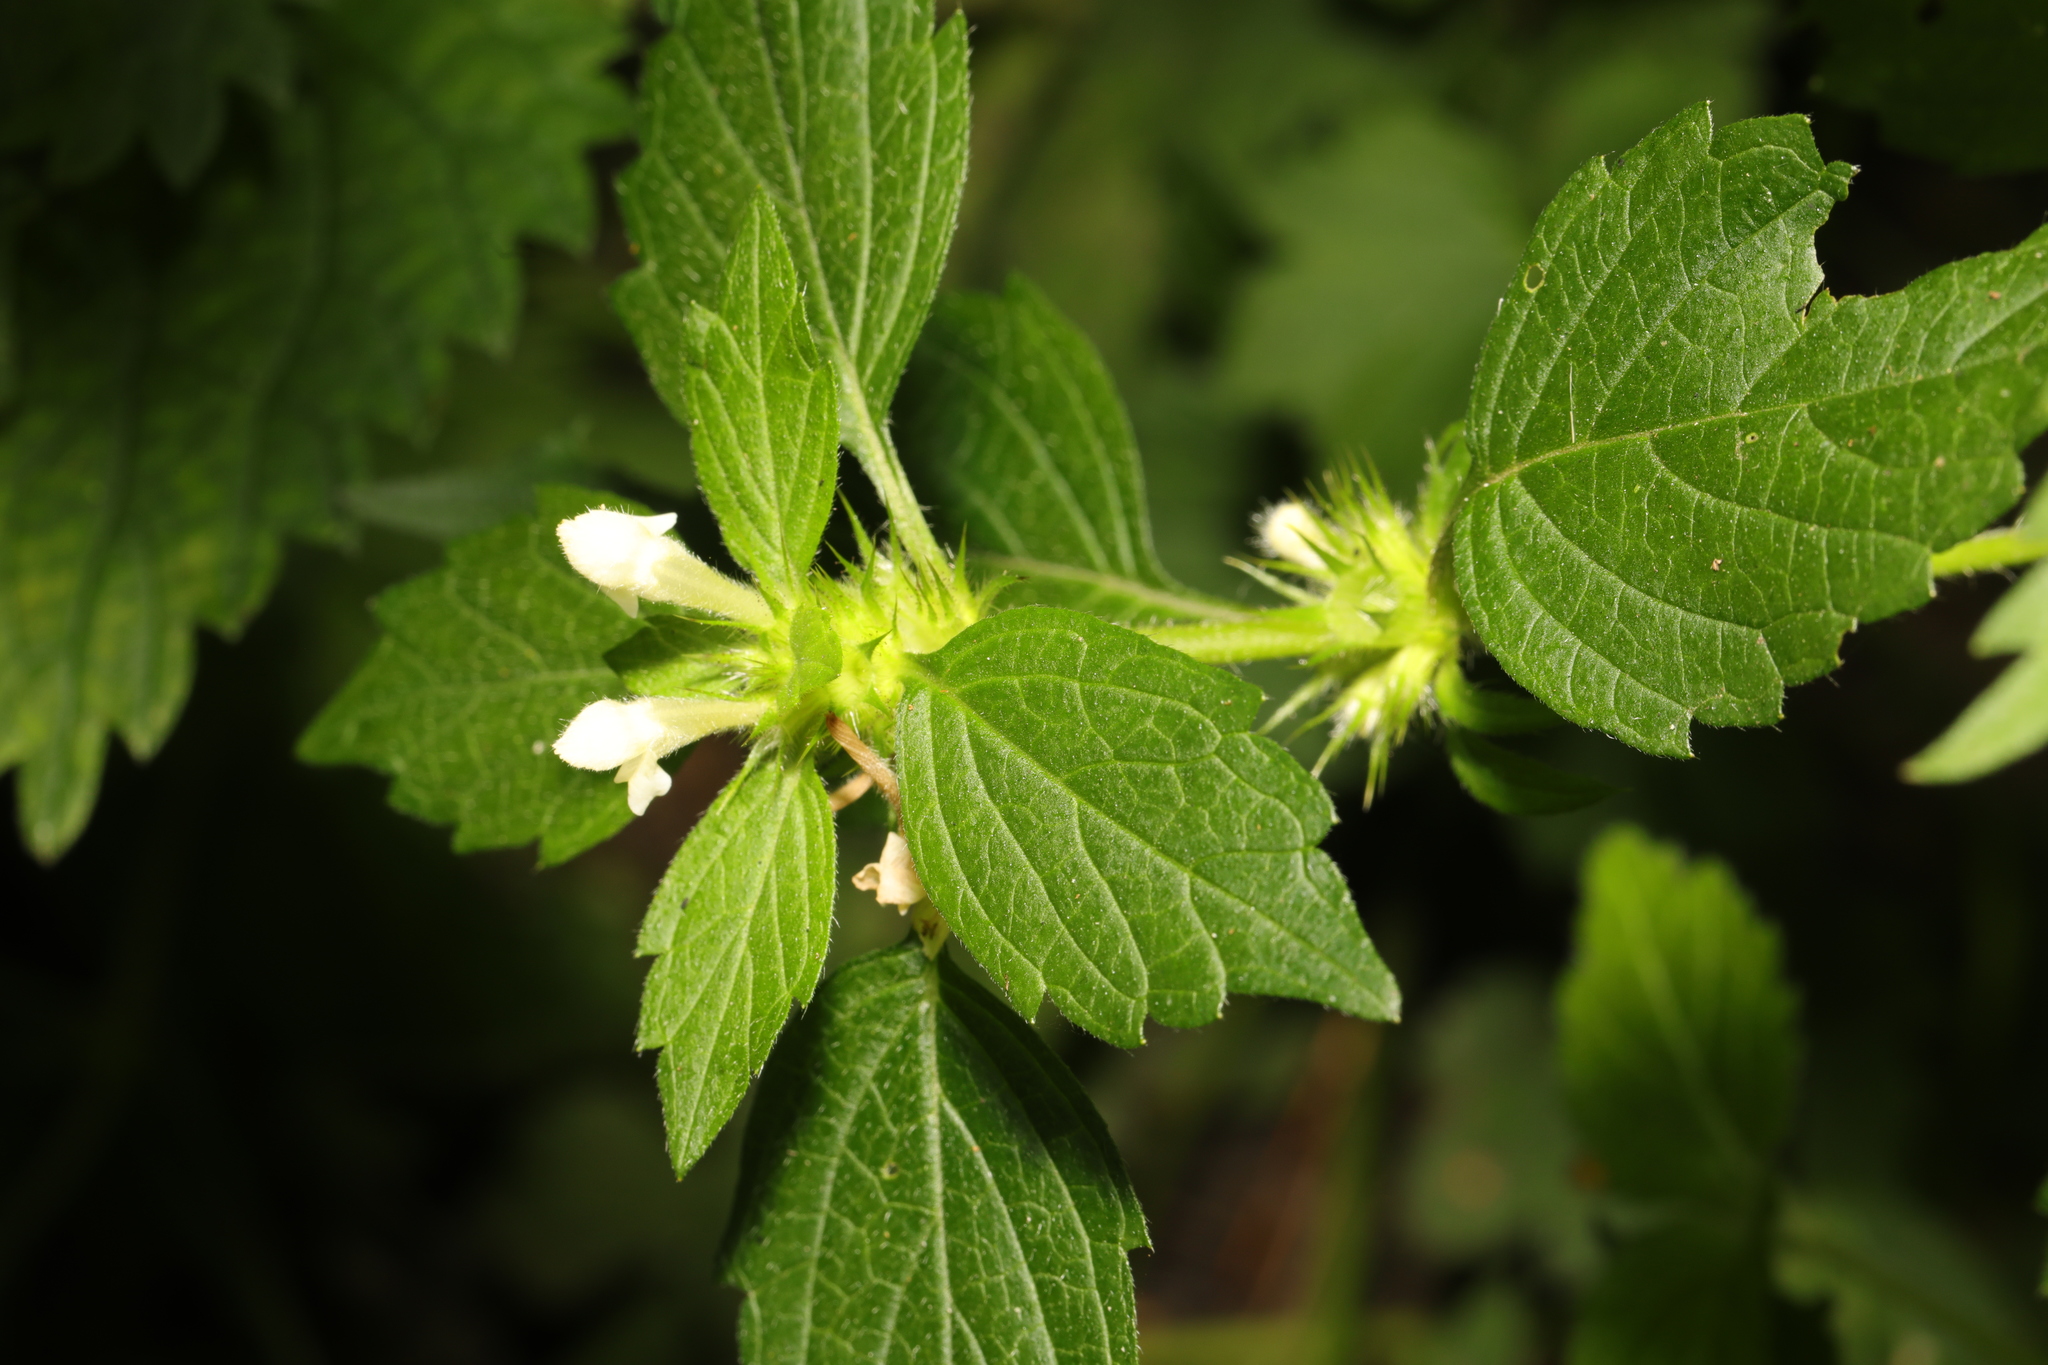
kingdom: Plantae
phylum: Tracheophyta
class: Magnoliopsida
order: Lamiales
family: Lamiaceae
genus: Galeopsis
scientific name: Galeopsis tetrahit
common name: Common hemp-nettle
